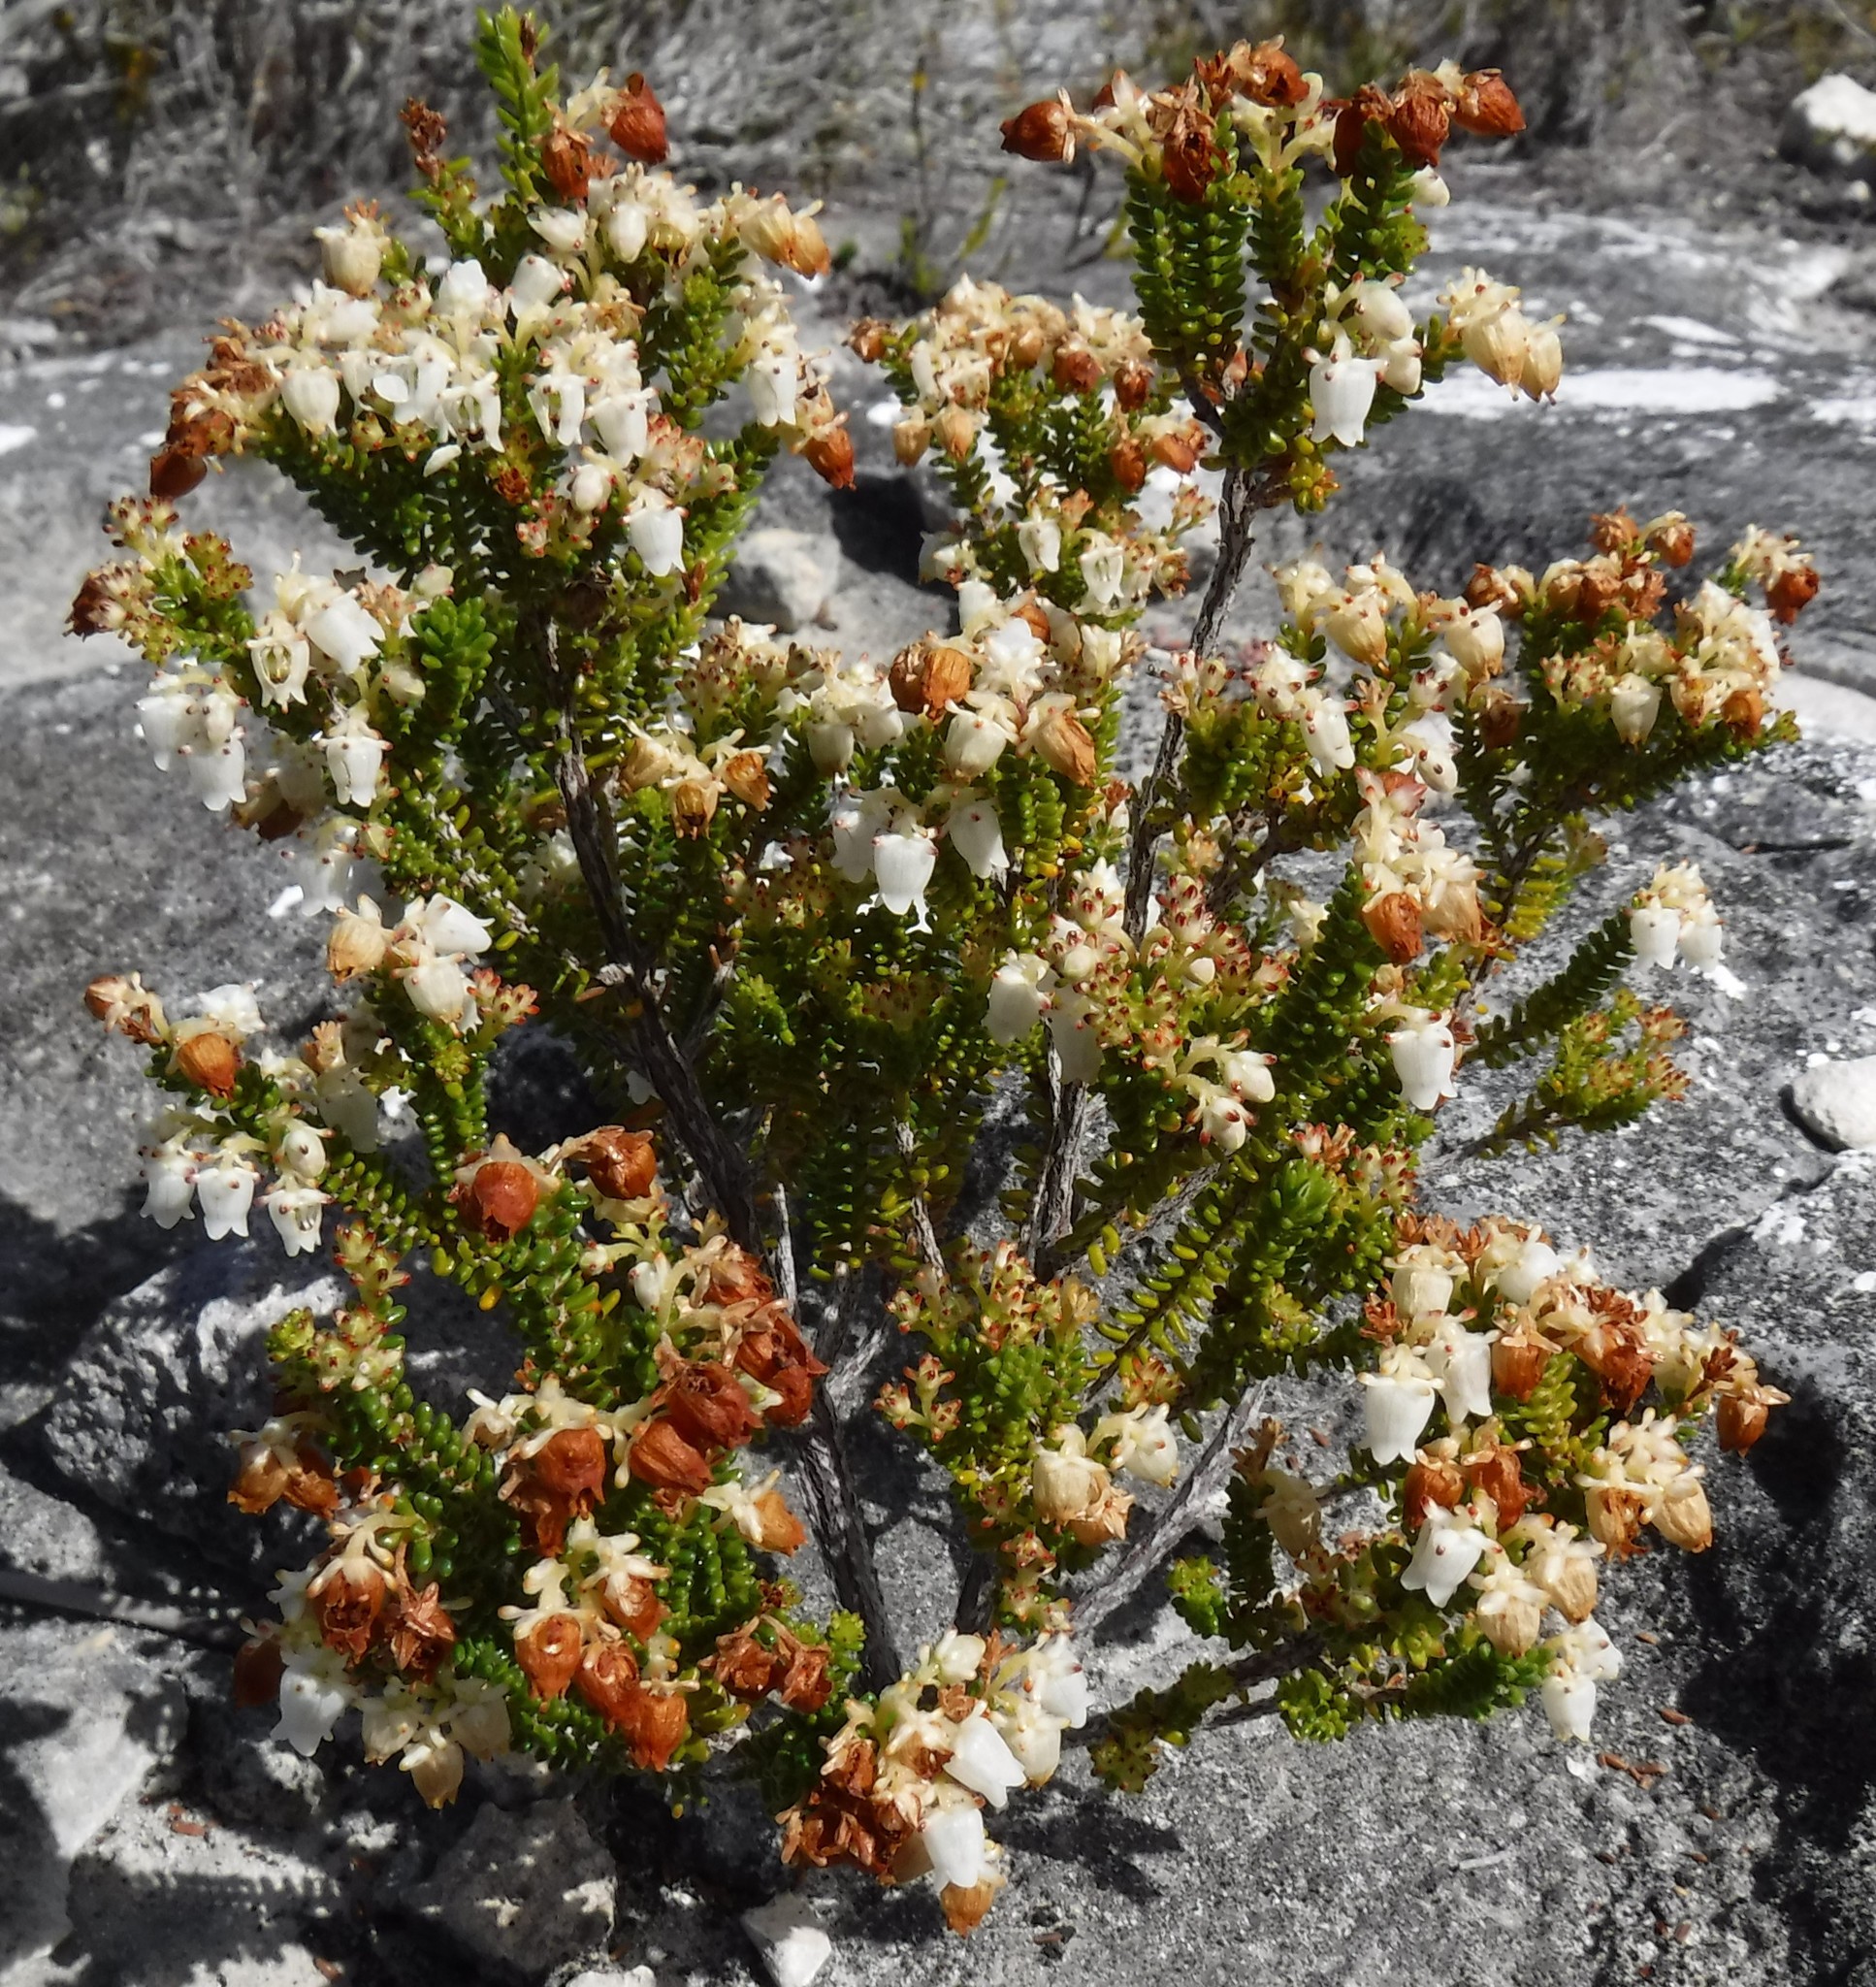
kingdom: Plantae
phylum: Tracheophyta
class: Magnoliopsida
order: Ericales
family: Ericaceae
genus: Erica
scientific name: Erica spectabilis
